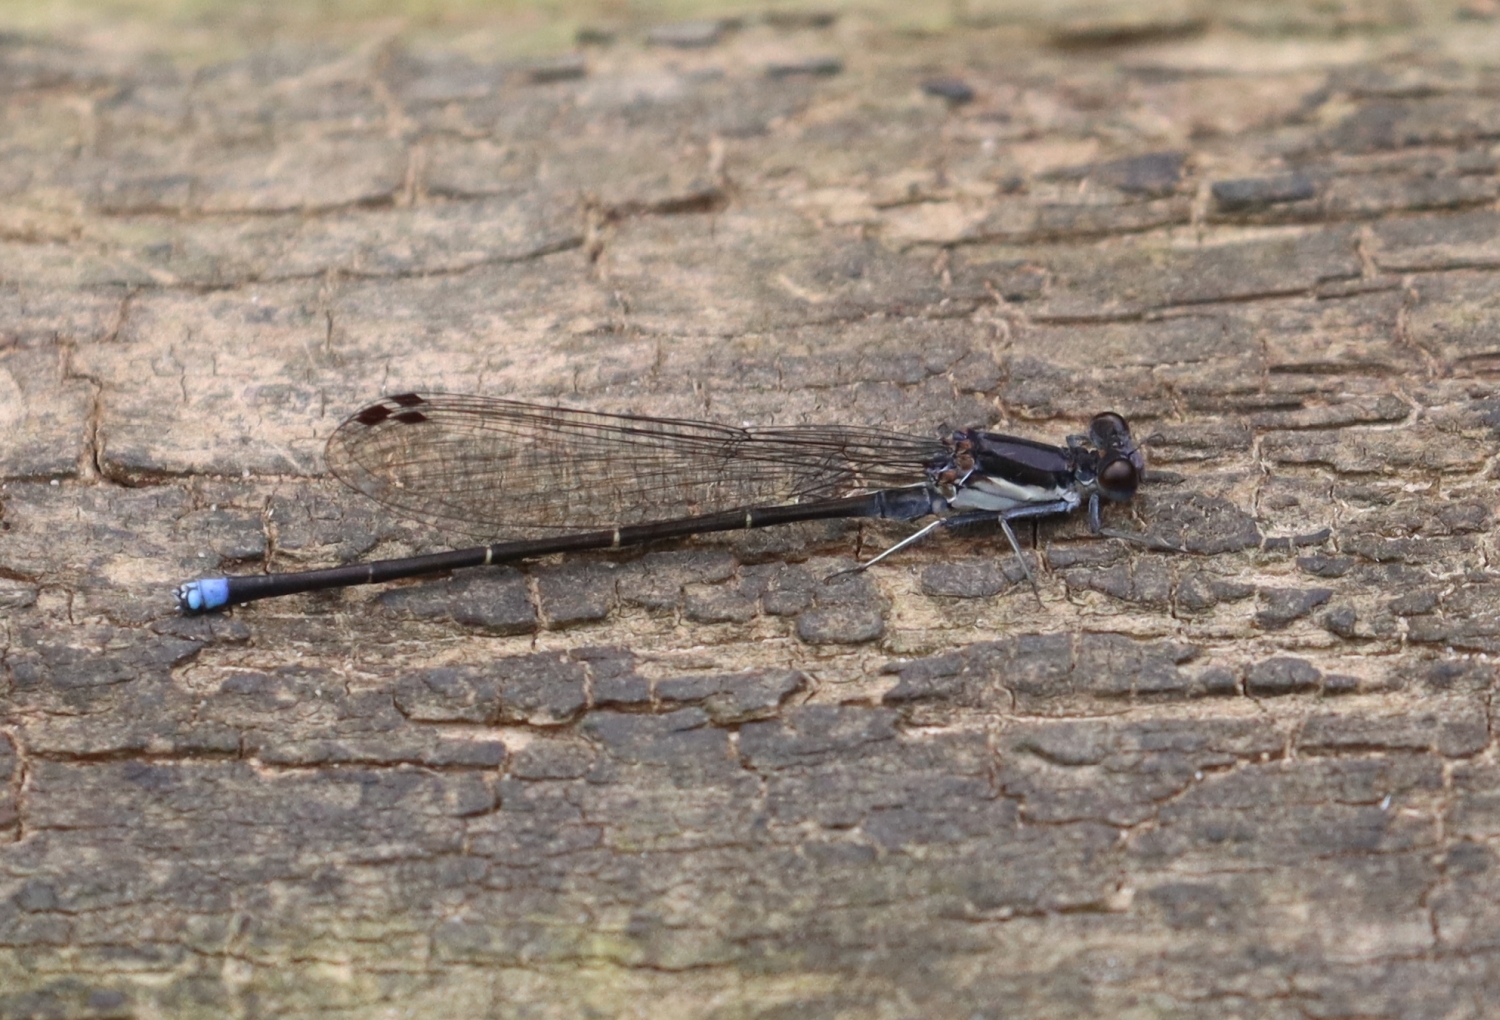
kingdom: Animalia
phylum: Arthropoda
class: Insecta
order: Odonata
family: Coenagrionidae
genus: Argia
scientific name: Argia tibialis
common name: Blue-tipped dancer
